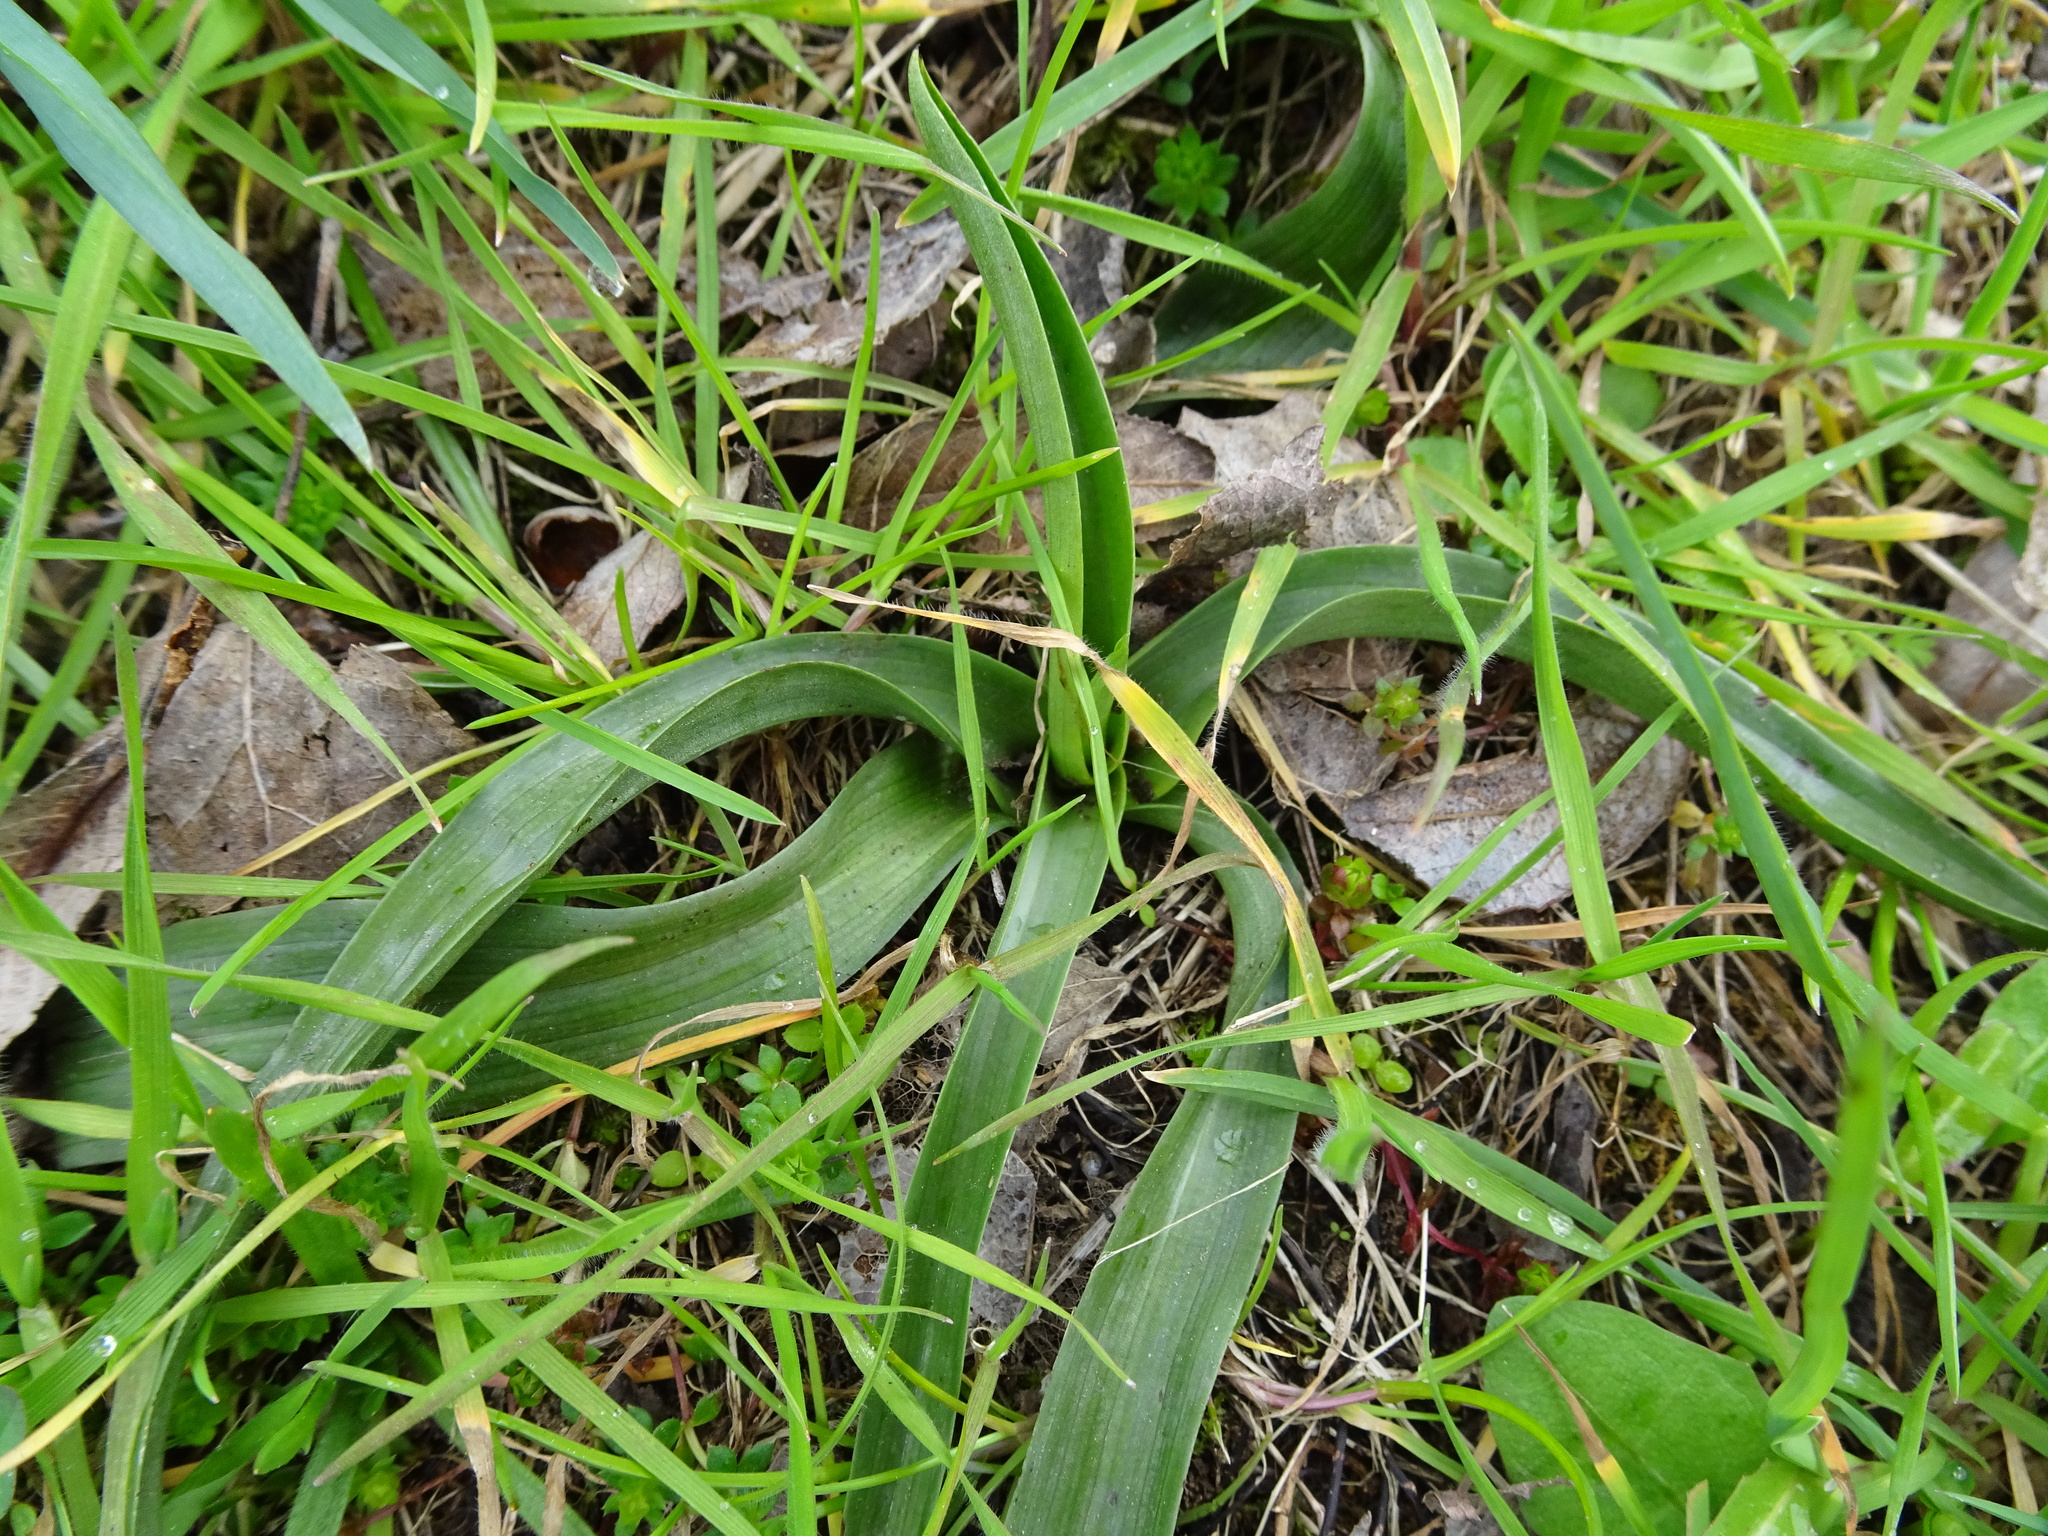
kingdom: Plantae
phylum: Tracheophyta
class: Liliopsida
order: Asparagales
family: Orchidaceae
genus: Anacamptis
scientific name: Anacamptis pyramidalis
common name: Pyramidal orchid
